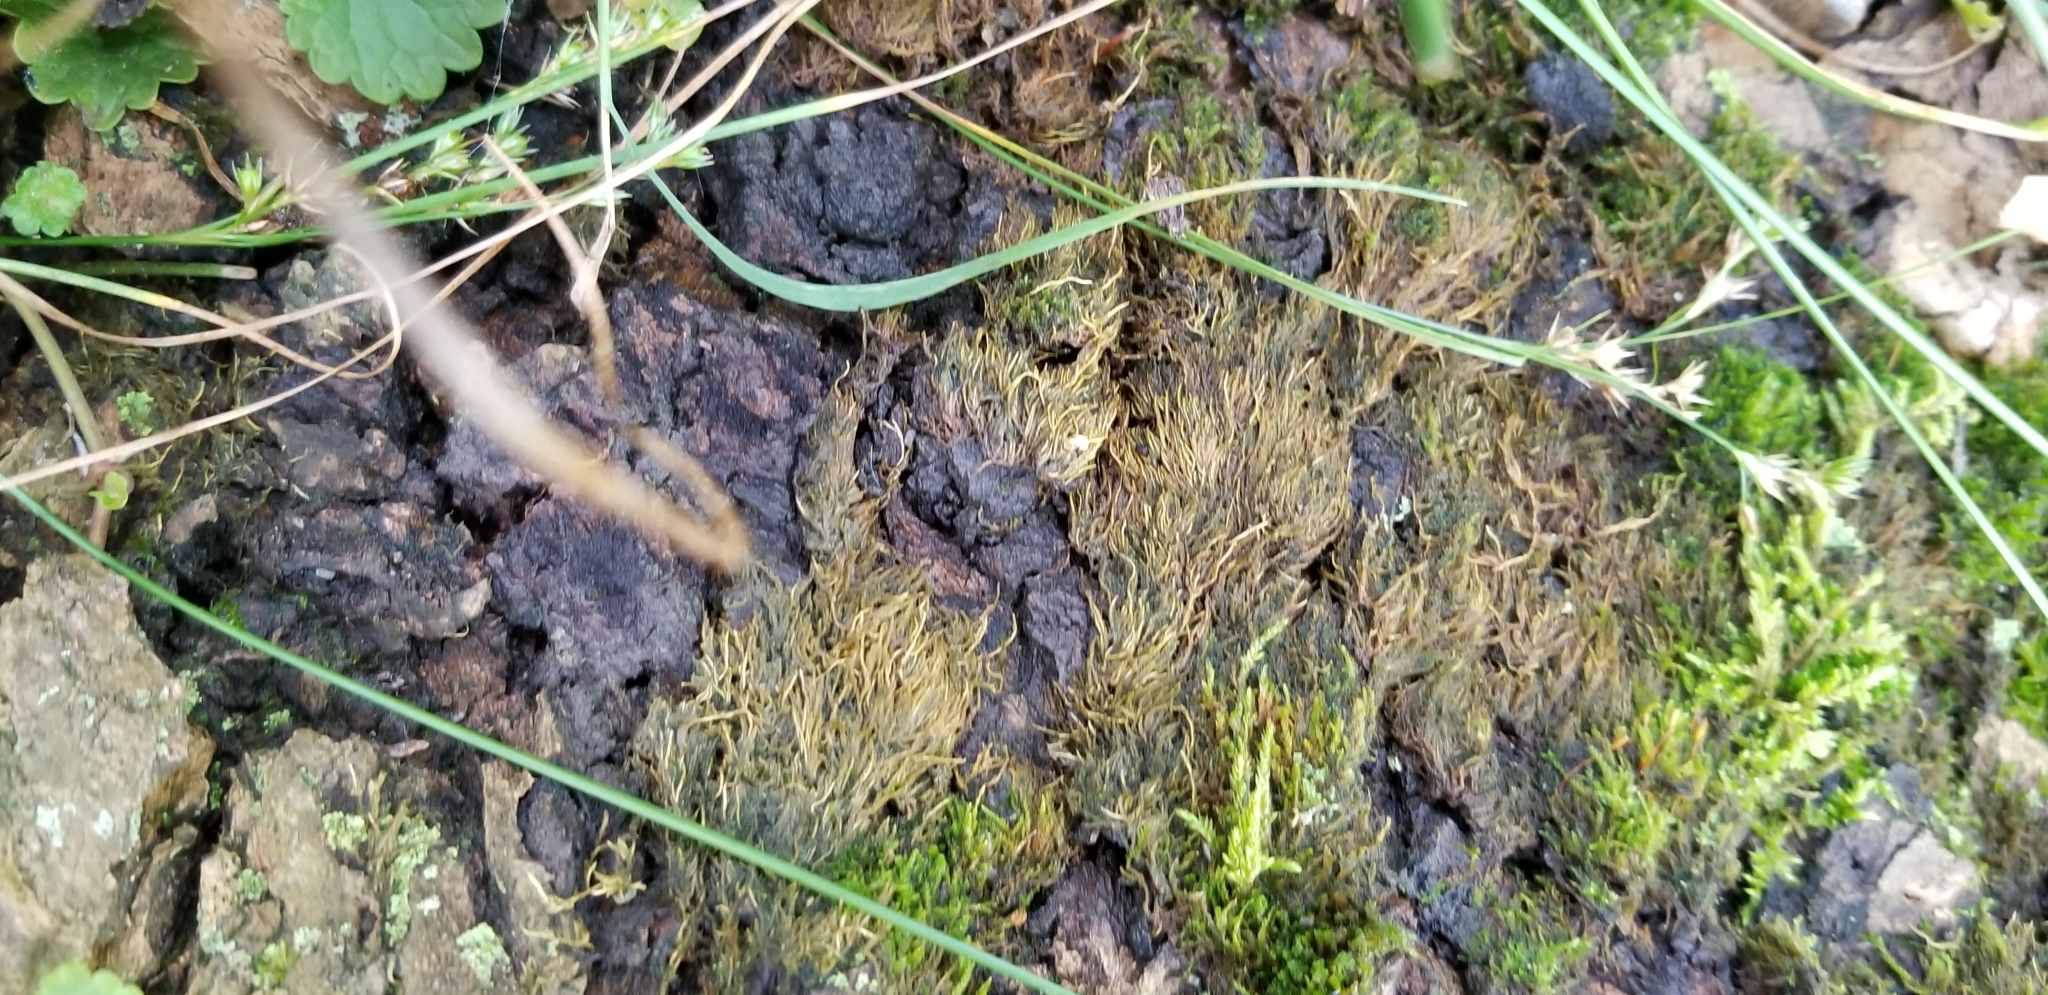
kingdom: Animalia
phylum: Chordata
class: Mammalia
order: Carnivora
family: Procyonidae
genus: Procyon
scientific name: Procyon lotor
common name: Raccoon
